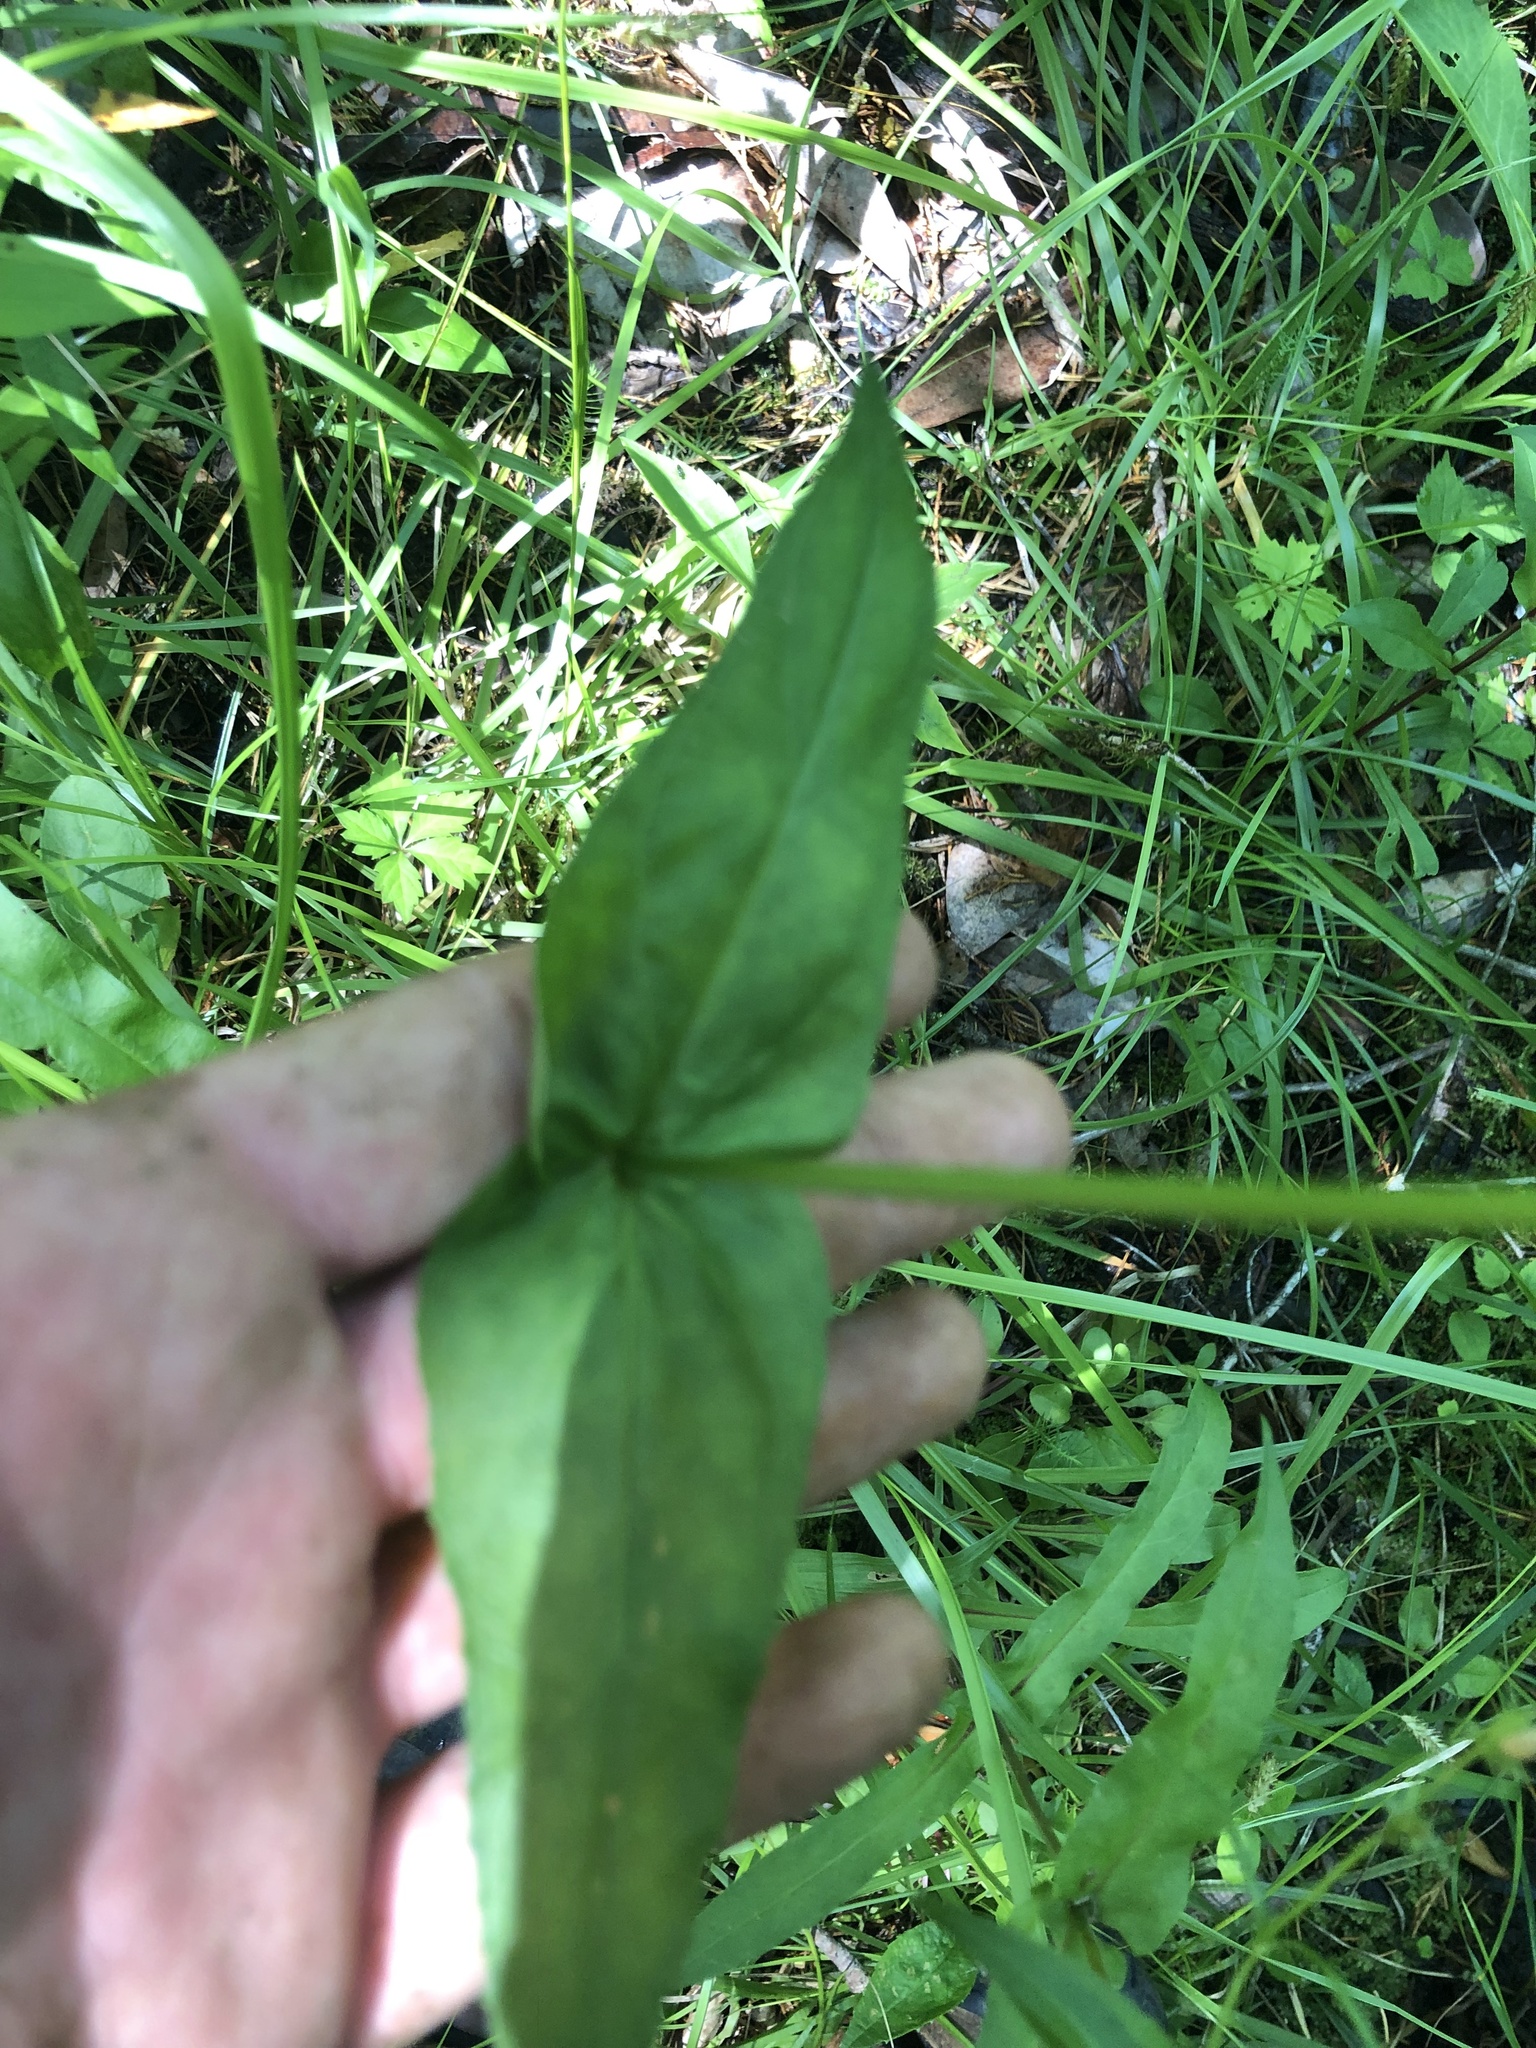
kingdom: Plantae
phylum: Tracheophyta
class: Magnoliopsida
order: Lamiales
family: Plantaginaceae
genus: Penstemon
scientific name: Penstemon digitalis
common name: Foxglove beardtongue
